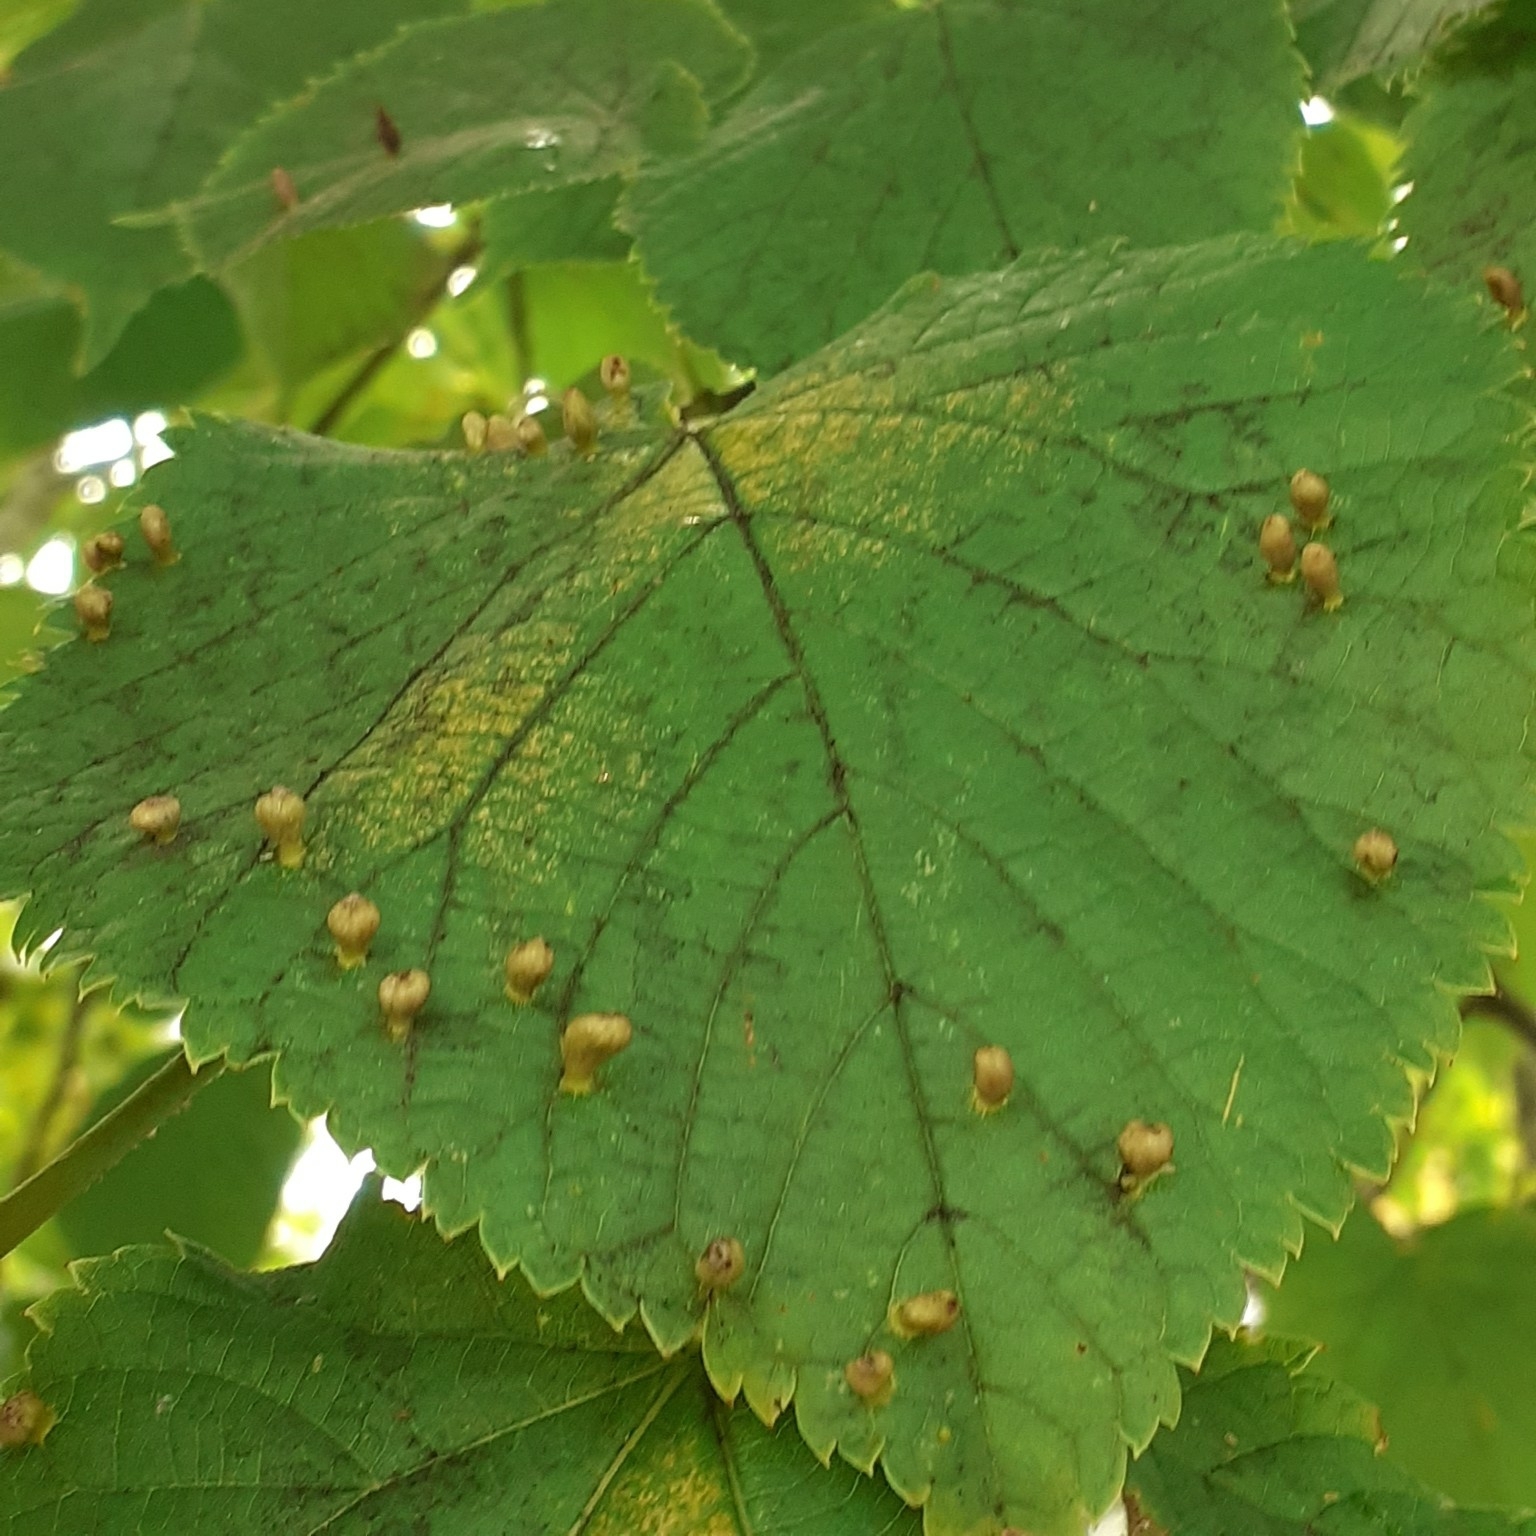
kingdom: Animalia
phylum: Arthropoda
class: Arachnida
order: Trombidiformes
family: Eriophyidae
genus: Eriophyes
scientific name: Eriophyes tiliae
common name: Red nail gall mite
